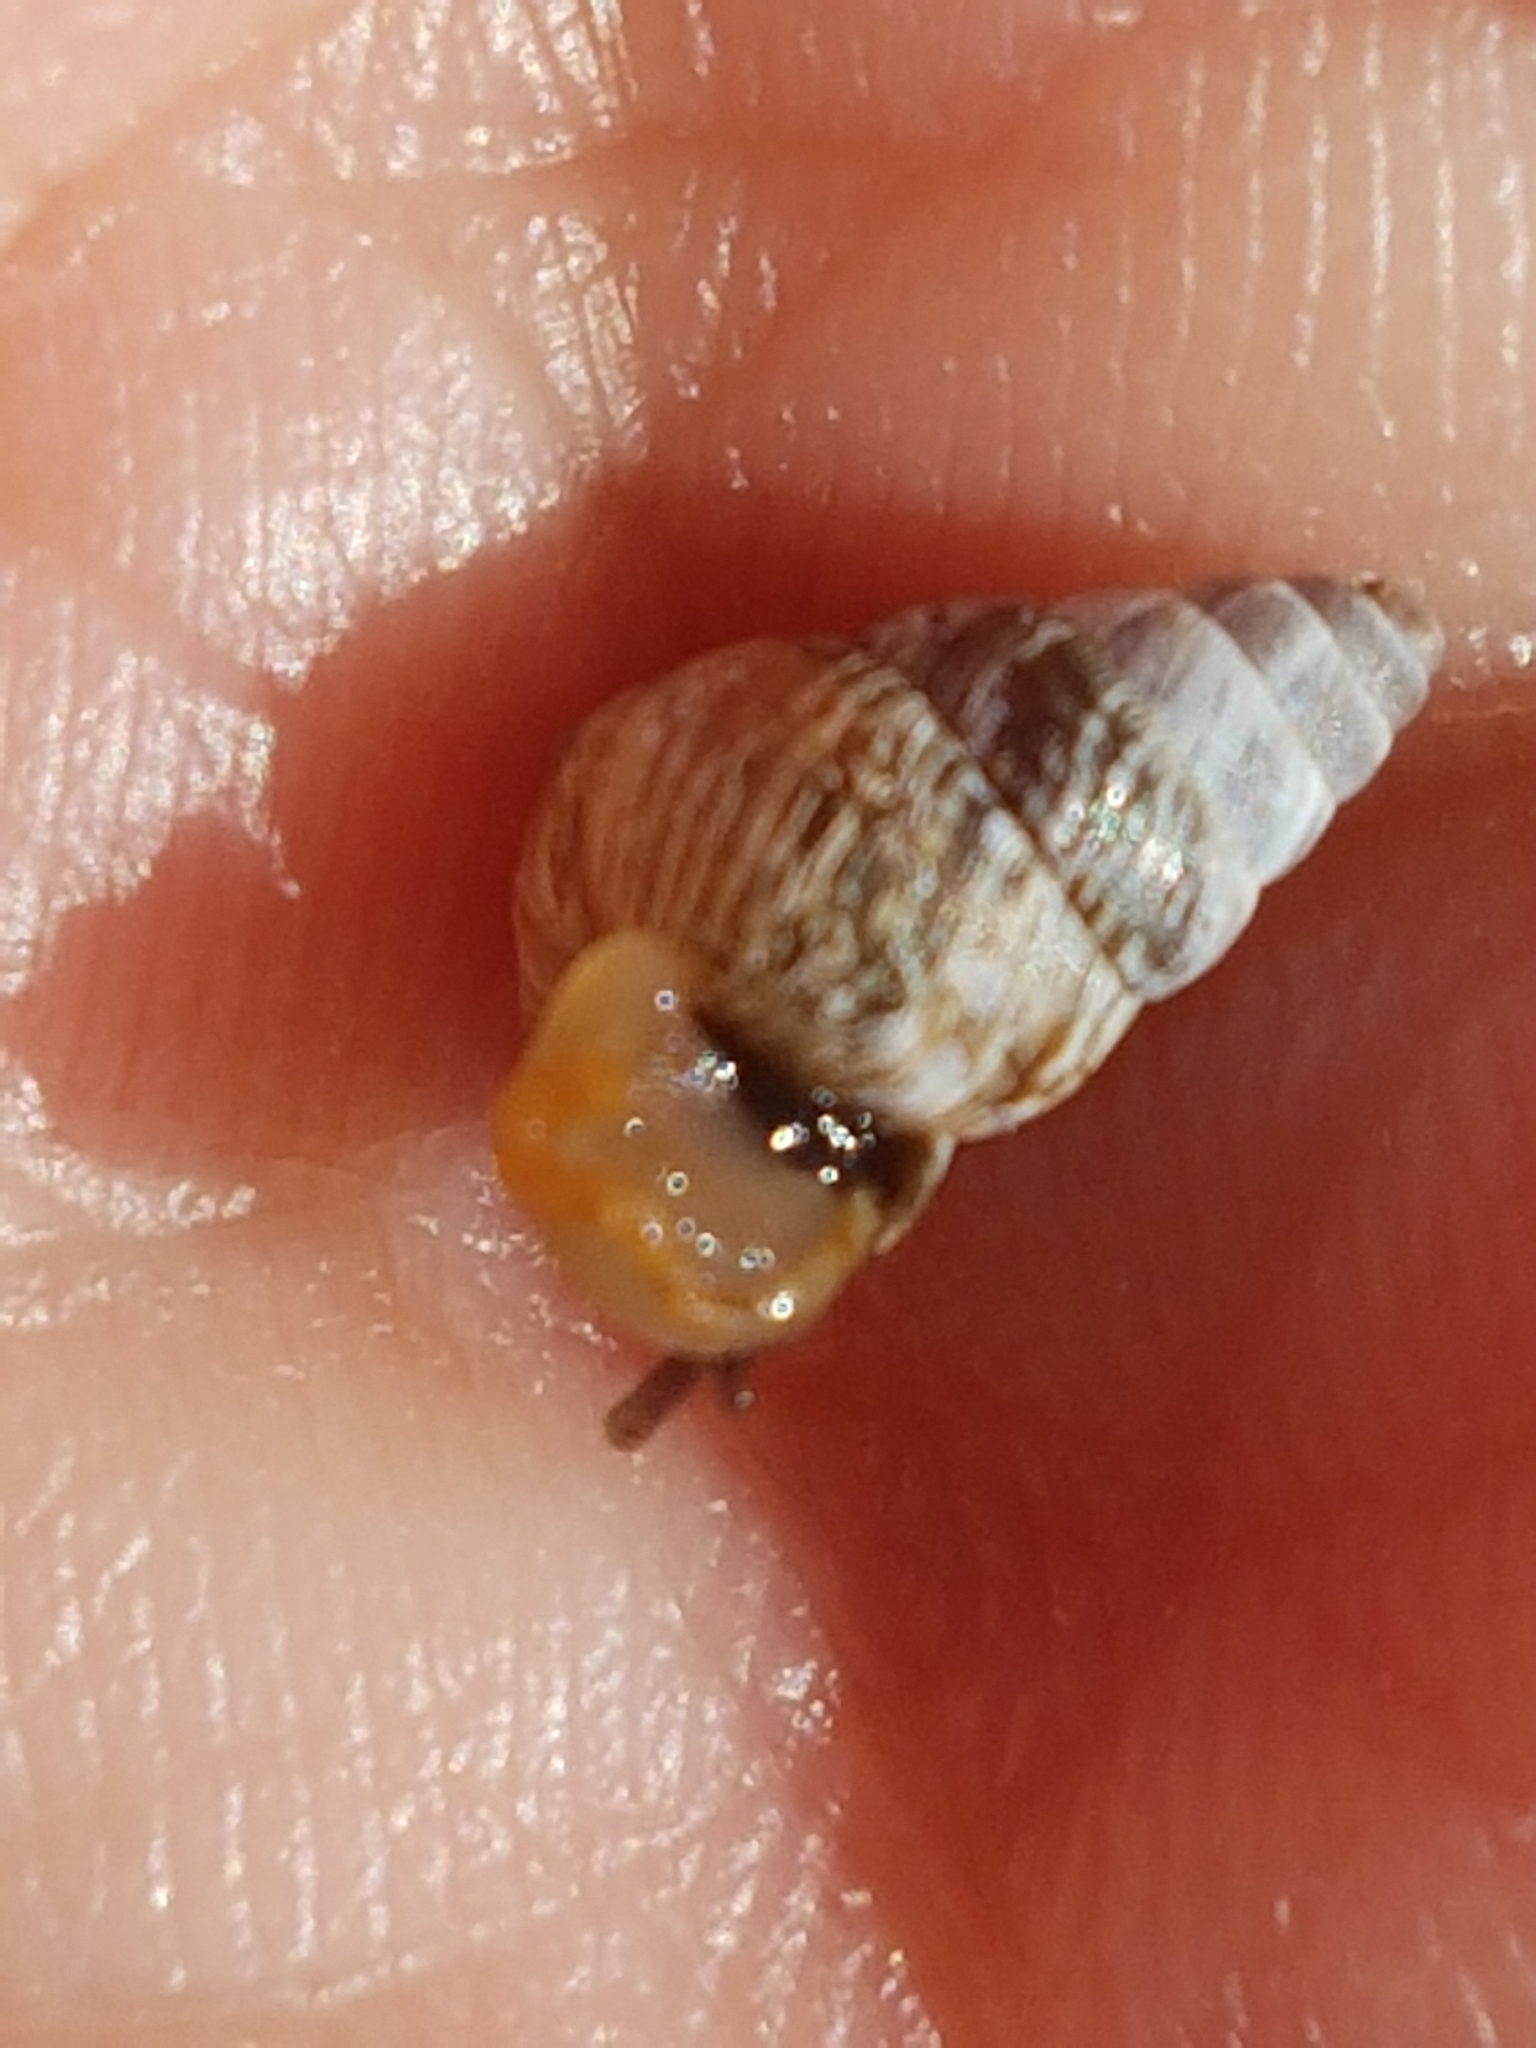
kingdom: Animalia
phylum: Mollusca
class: Gastropoda
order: Stylommatophora
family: Geomitridae
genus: Cochlicella
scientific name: Cochlicella barbara
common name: Potbellied helicellid
